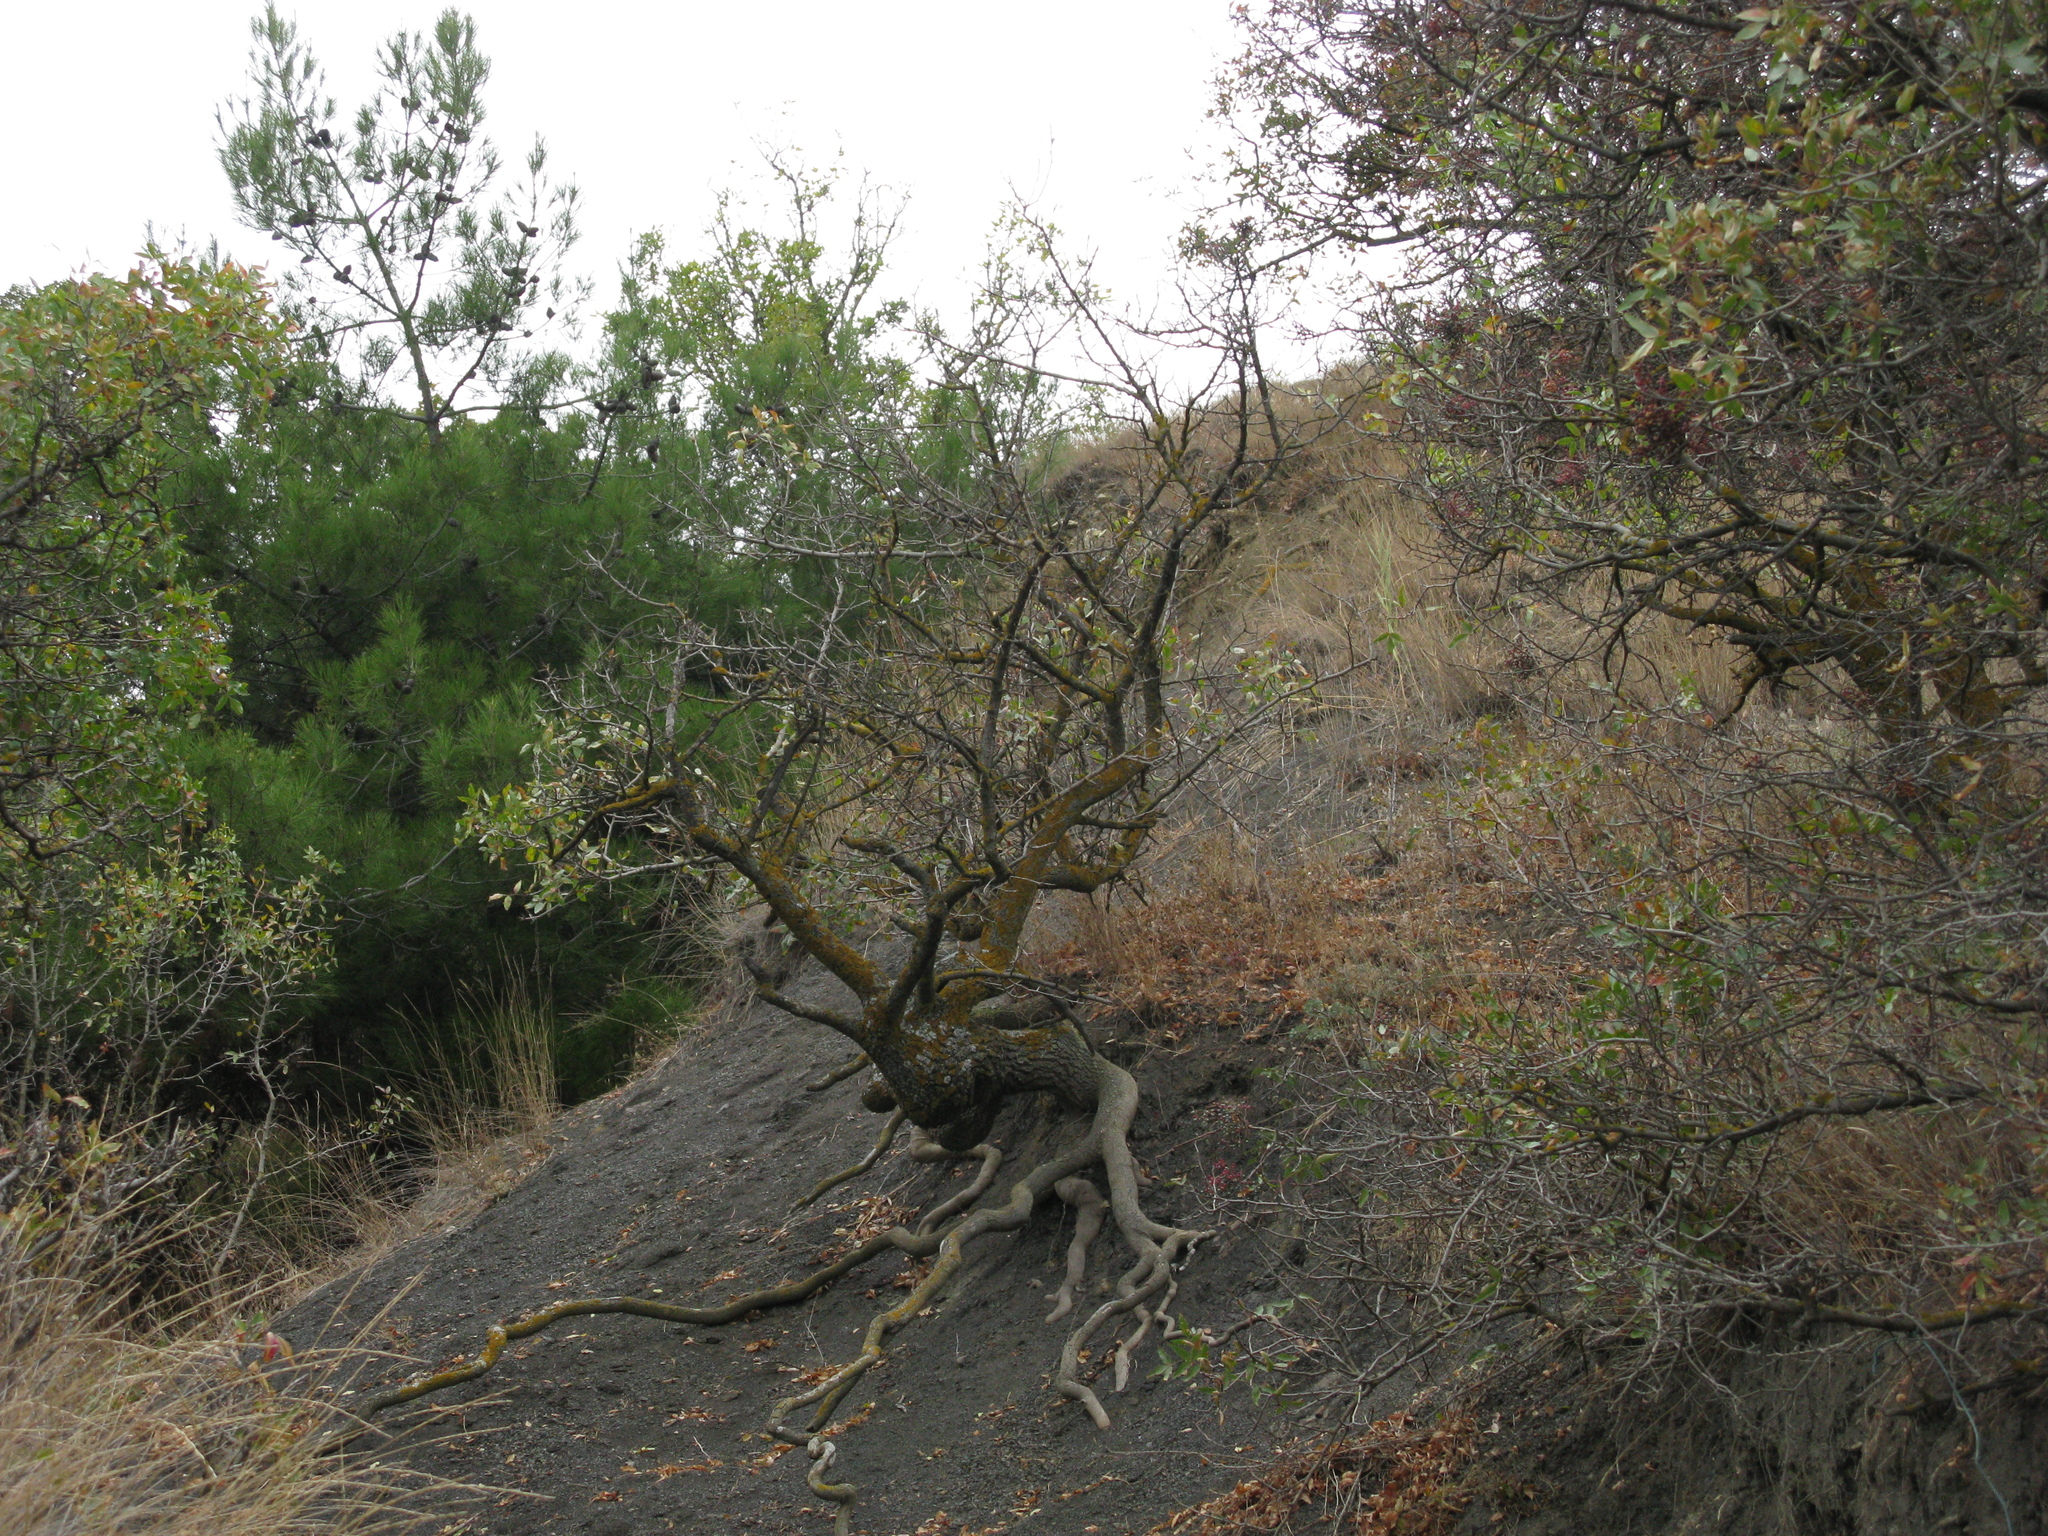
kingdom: Plantae
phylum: Tracheophyta
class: Magnoliopsida
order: Sapindales
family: Anacardiaceae
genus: Pistacia
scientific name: Pistacia atlantica
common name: Mt. atlas mastic tree
